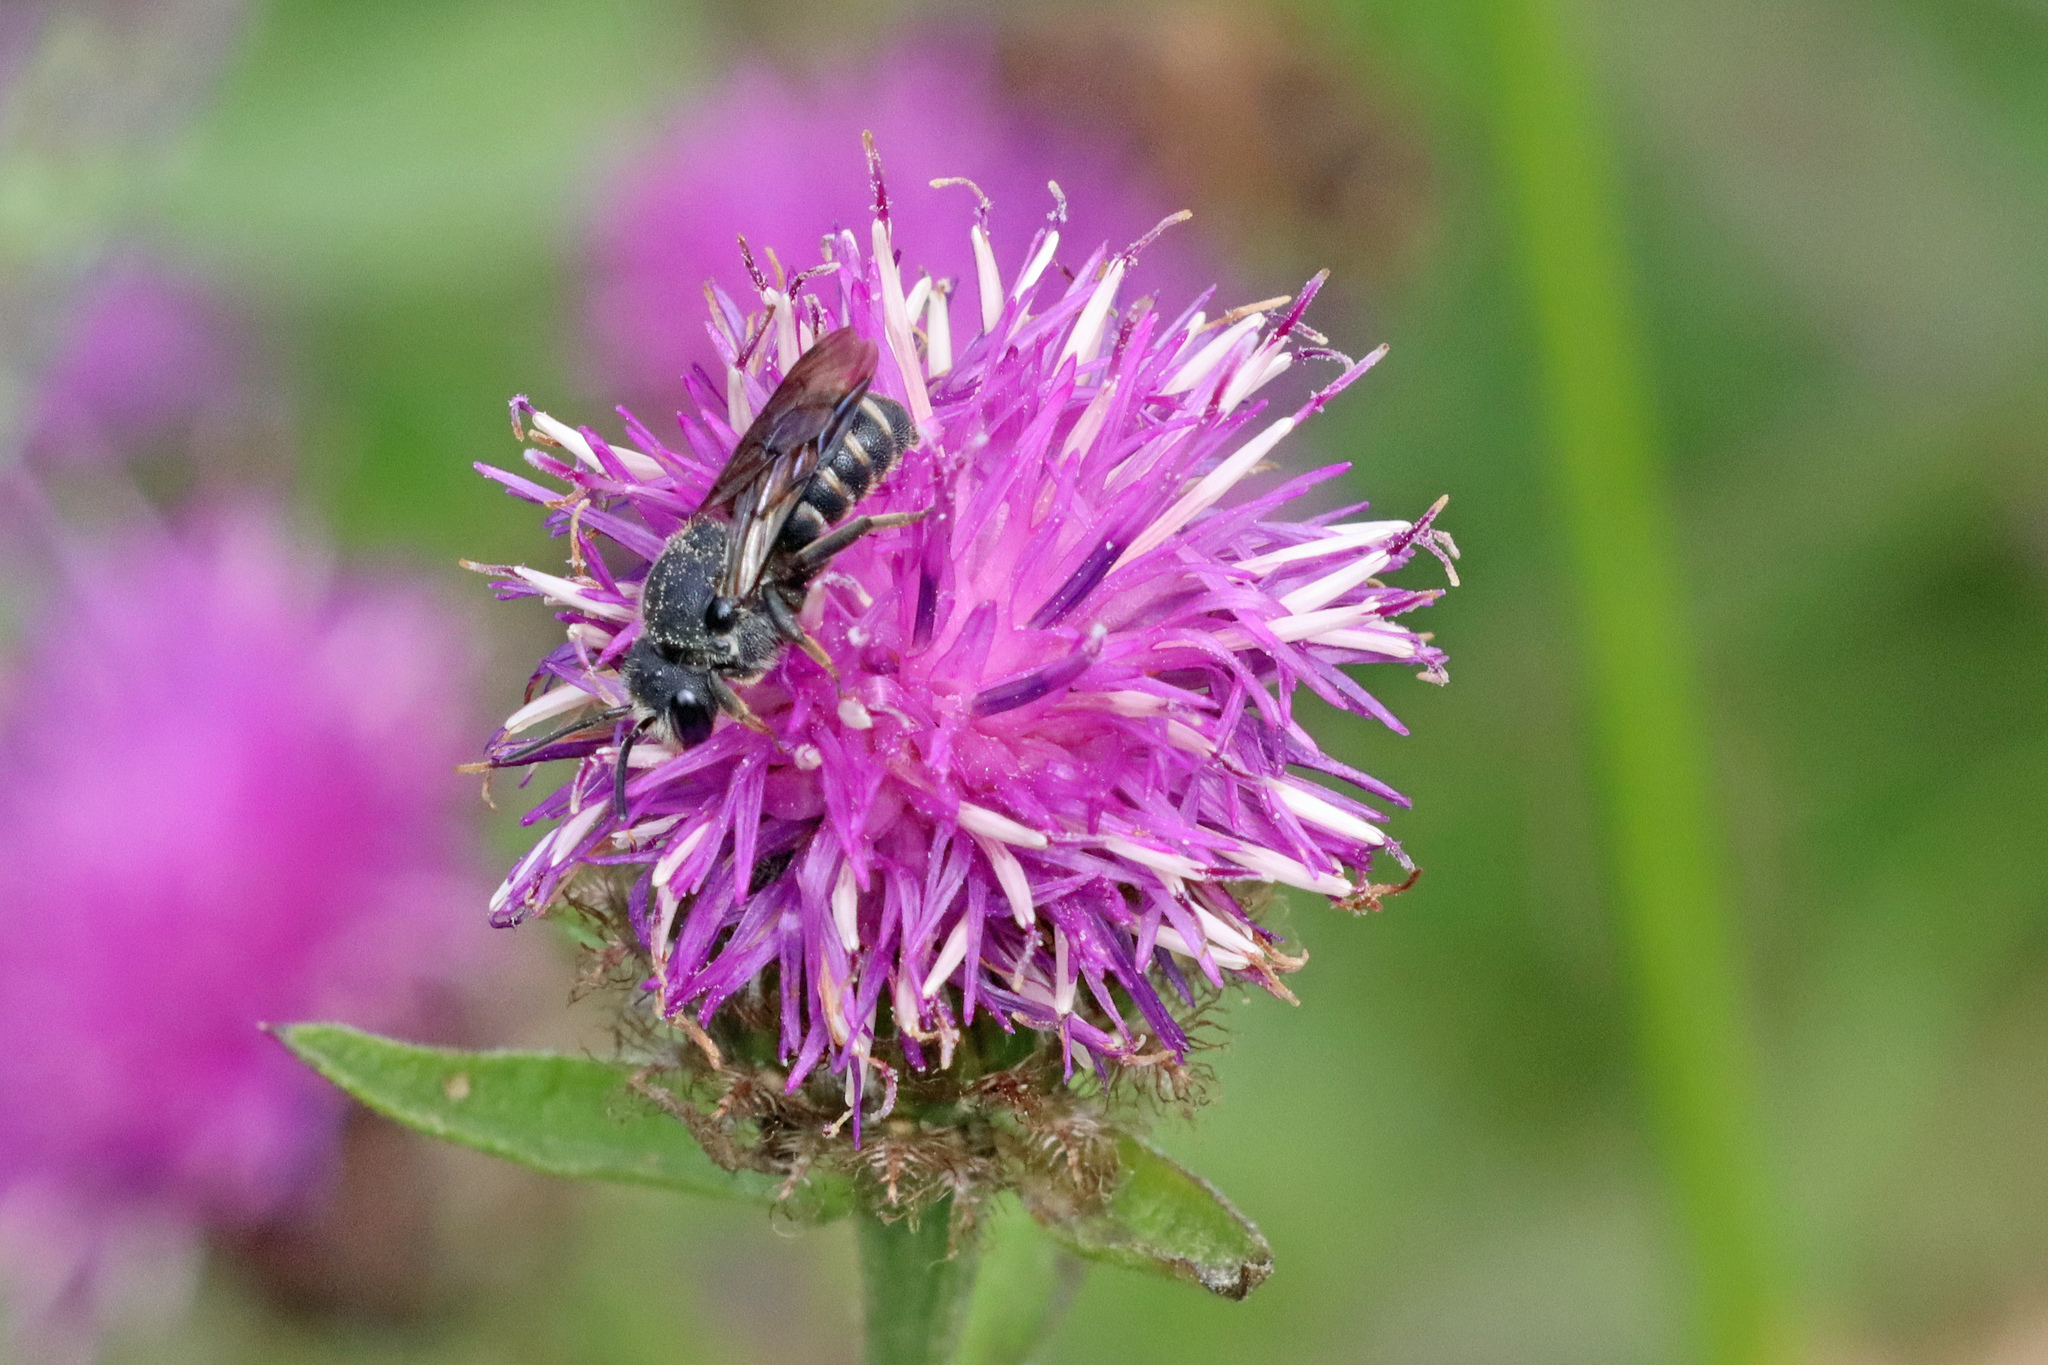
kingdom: Animalia
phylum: Arthropoda
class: Insecta
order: Hymenoptera
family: Megachilidae
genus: Stelis
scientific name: Stelis punctulatissima
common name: Banded dark bee
